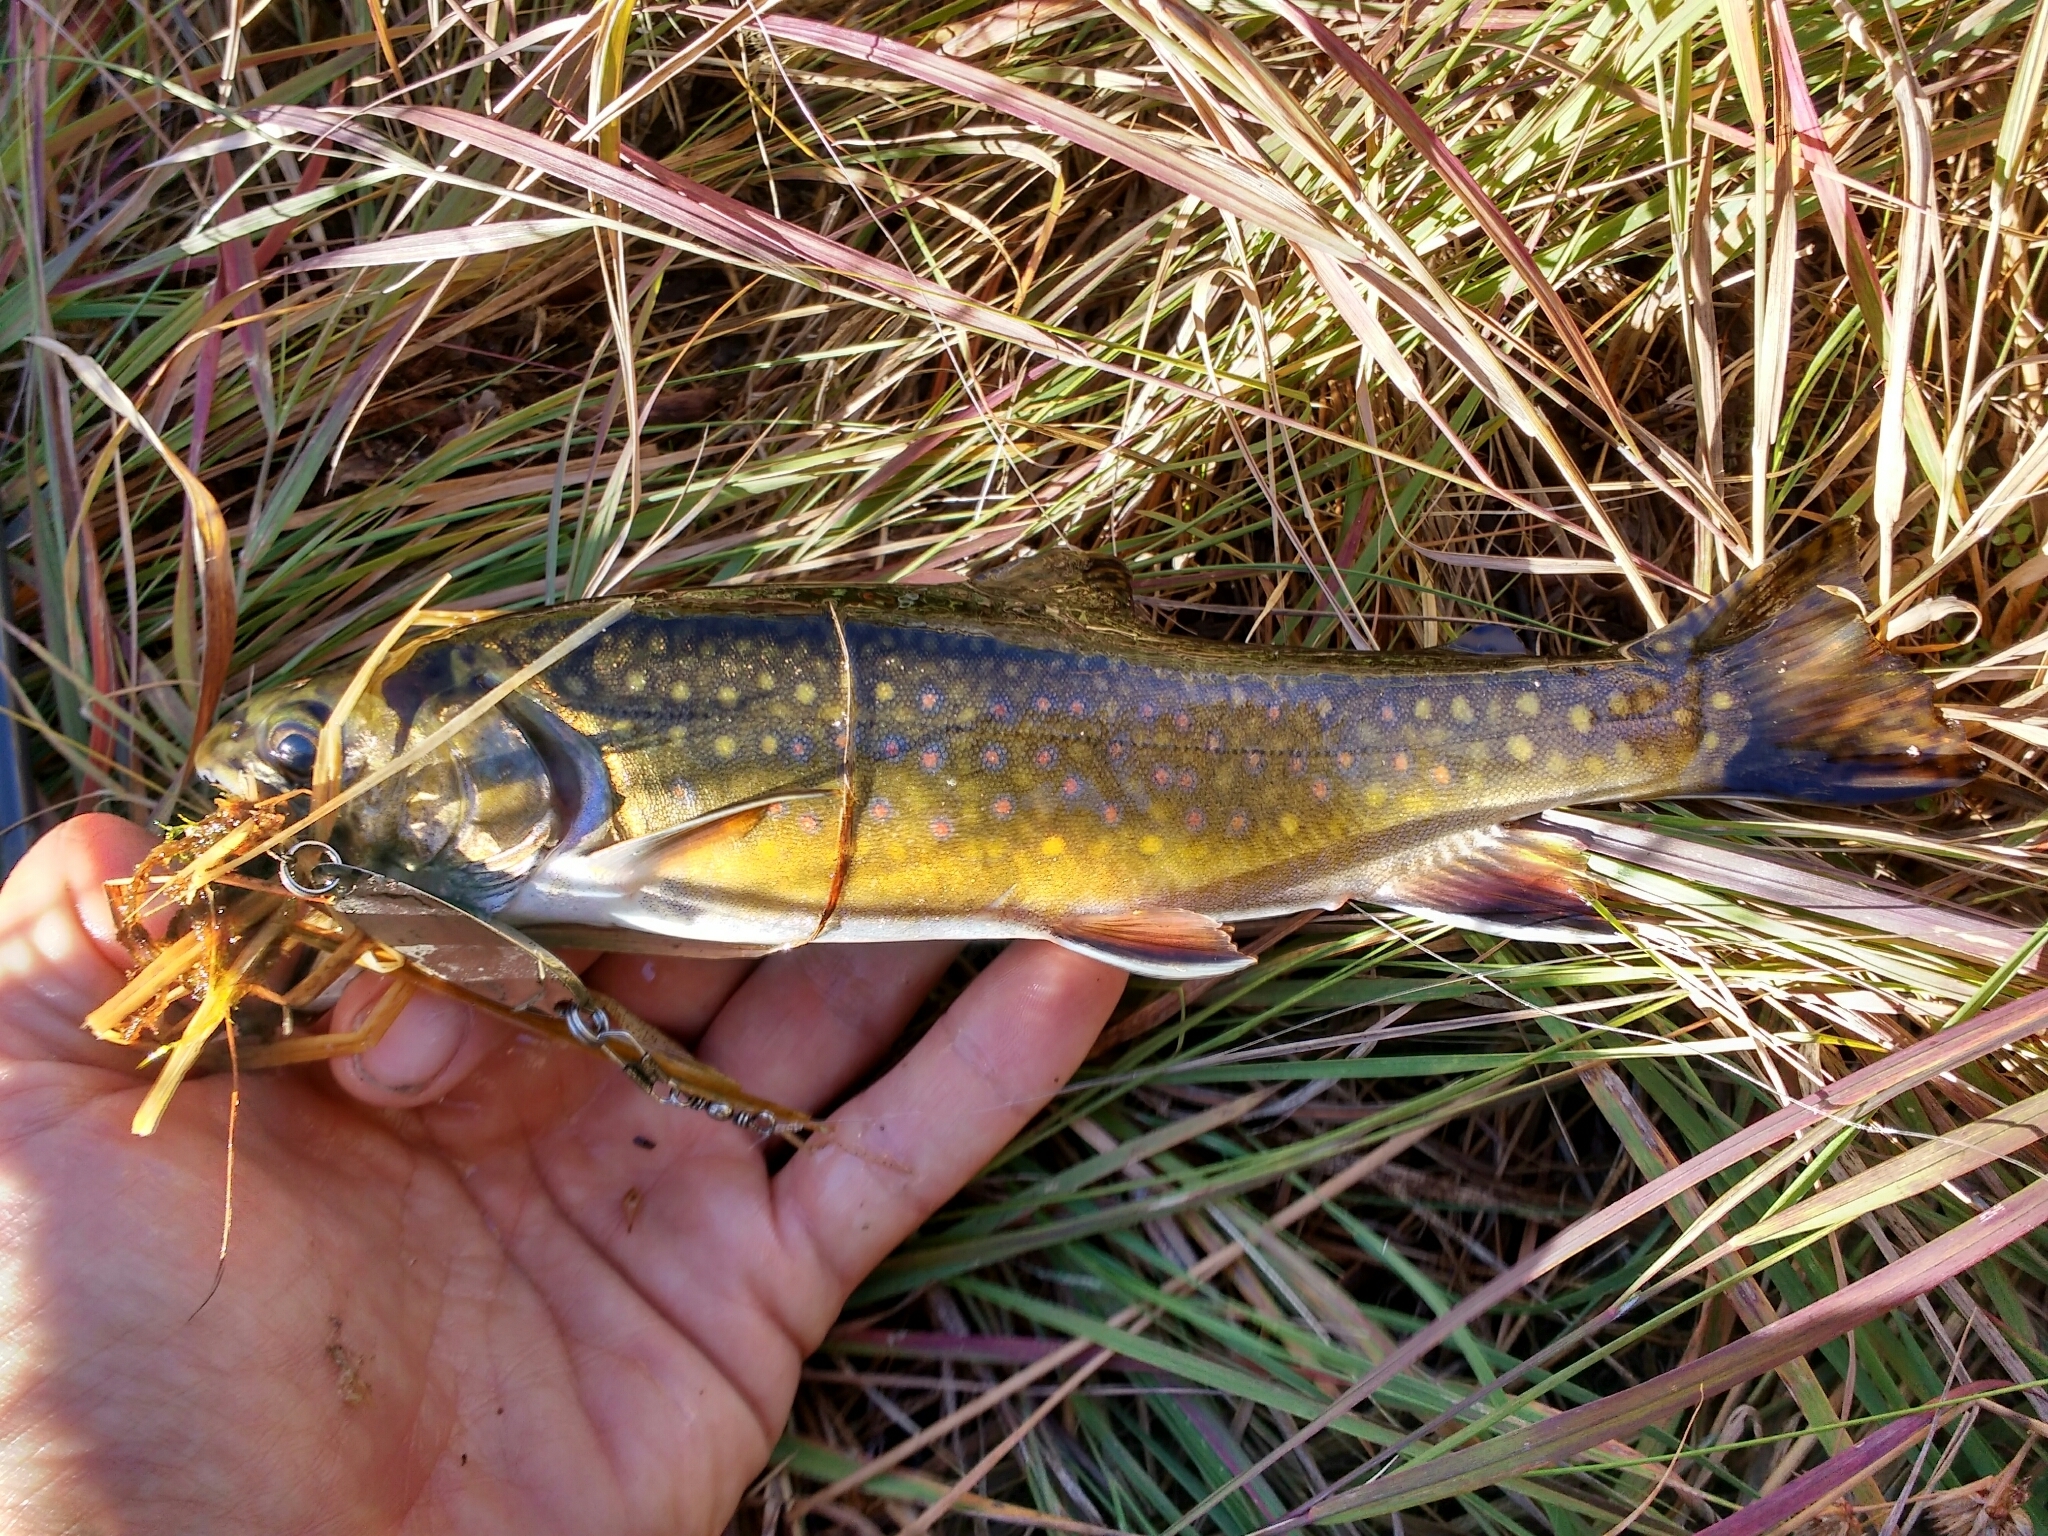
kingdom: Animalia
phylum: Chordata
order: Salmoniformes
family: Salmonidae
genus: Salvelinus
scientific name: Salvelinus fontinalis
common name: Brook trout
